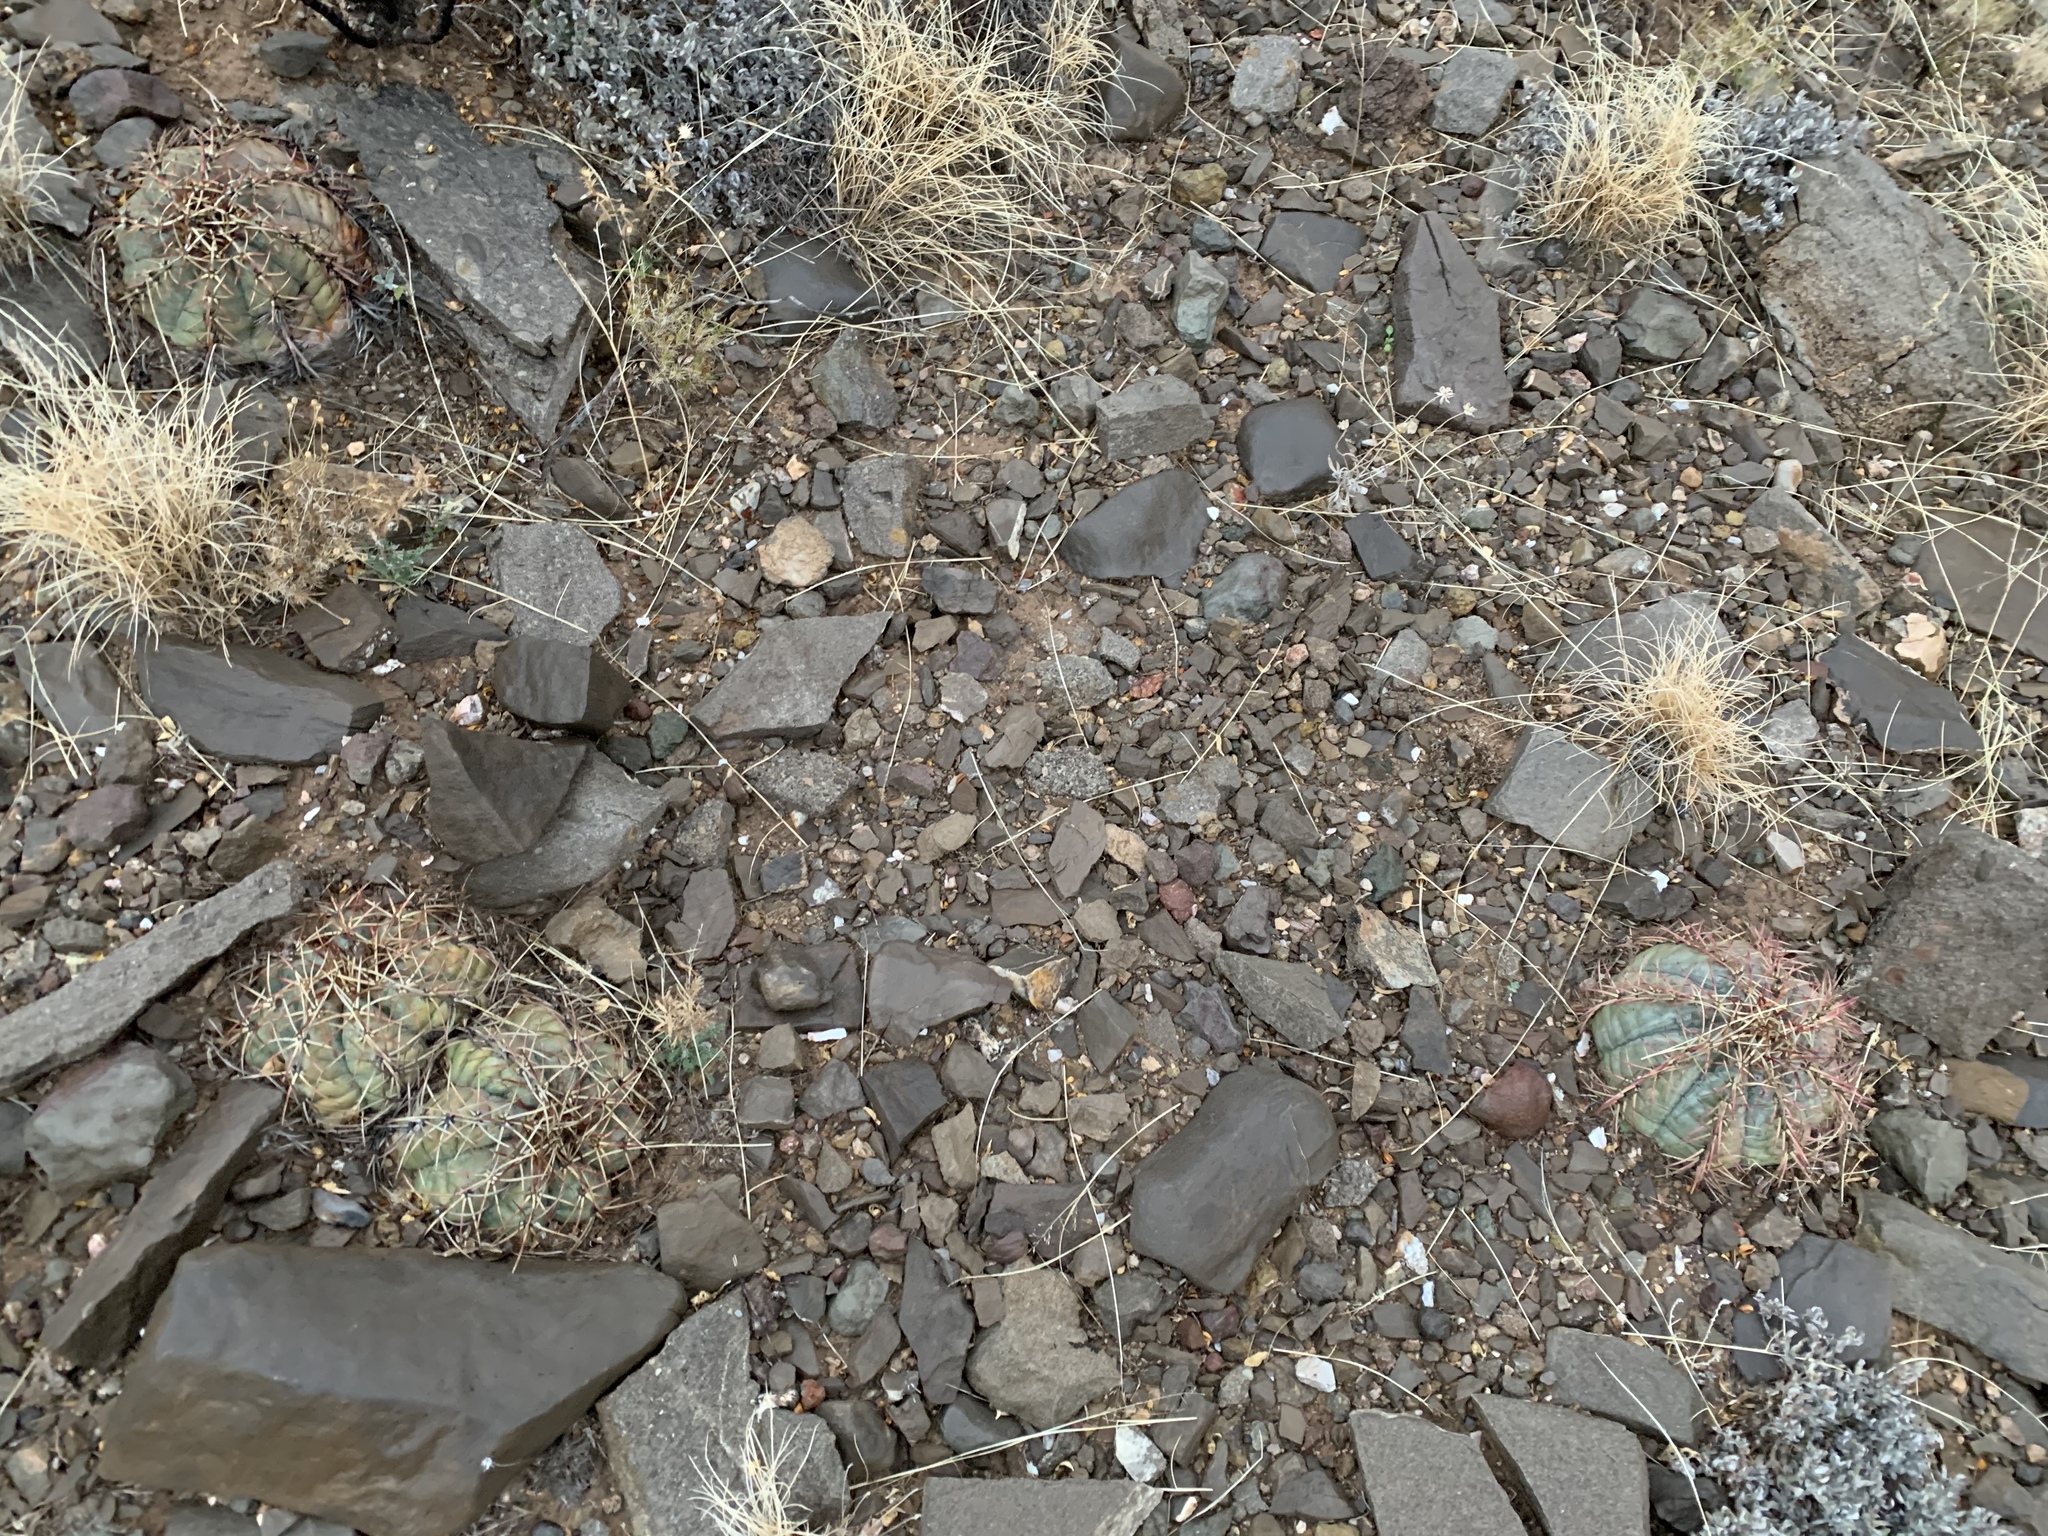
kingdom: Plantae
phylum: Tracheophyta
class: Magnoliopsida
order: Caryophyllales
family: Cactaceae
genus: Echinocactus
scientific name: Echinocactus horizonthalonius
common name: Devilshead
